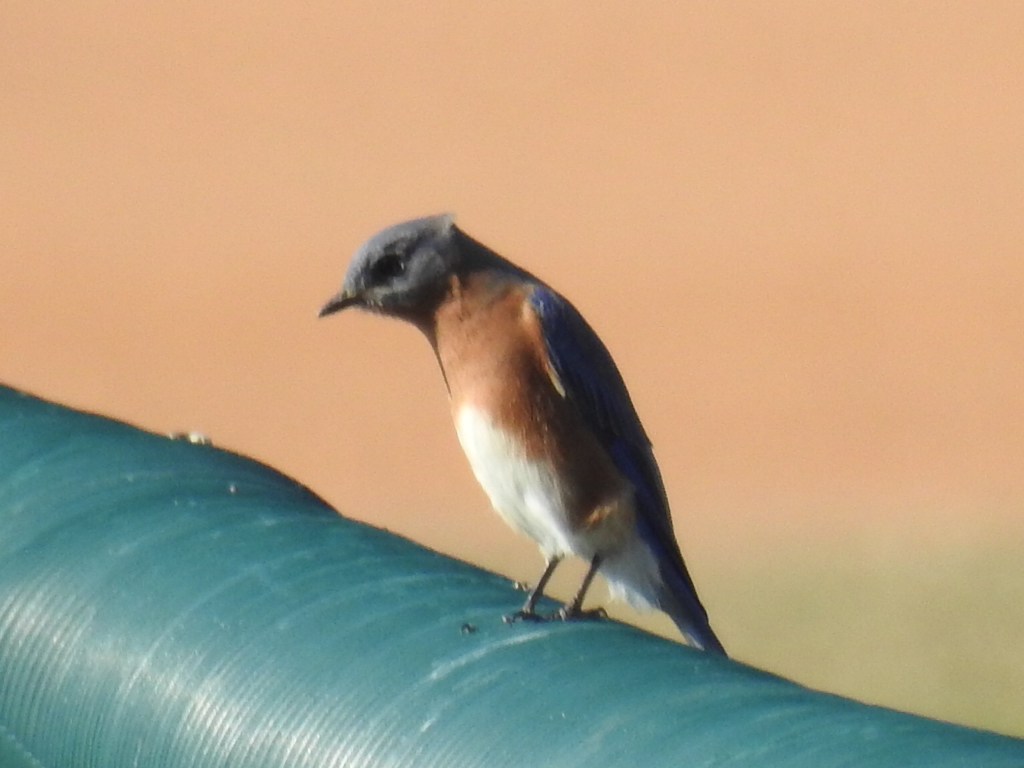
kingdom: Animalia
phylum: Chordata
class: Aves
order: Passeriformes
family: Turdidae
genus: Sialia
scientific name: Sialia sialis
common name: Eastern bluebird
